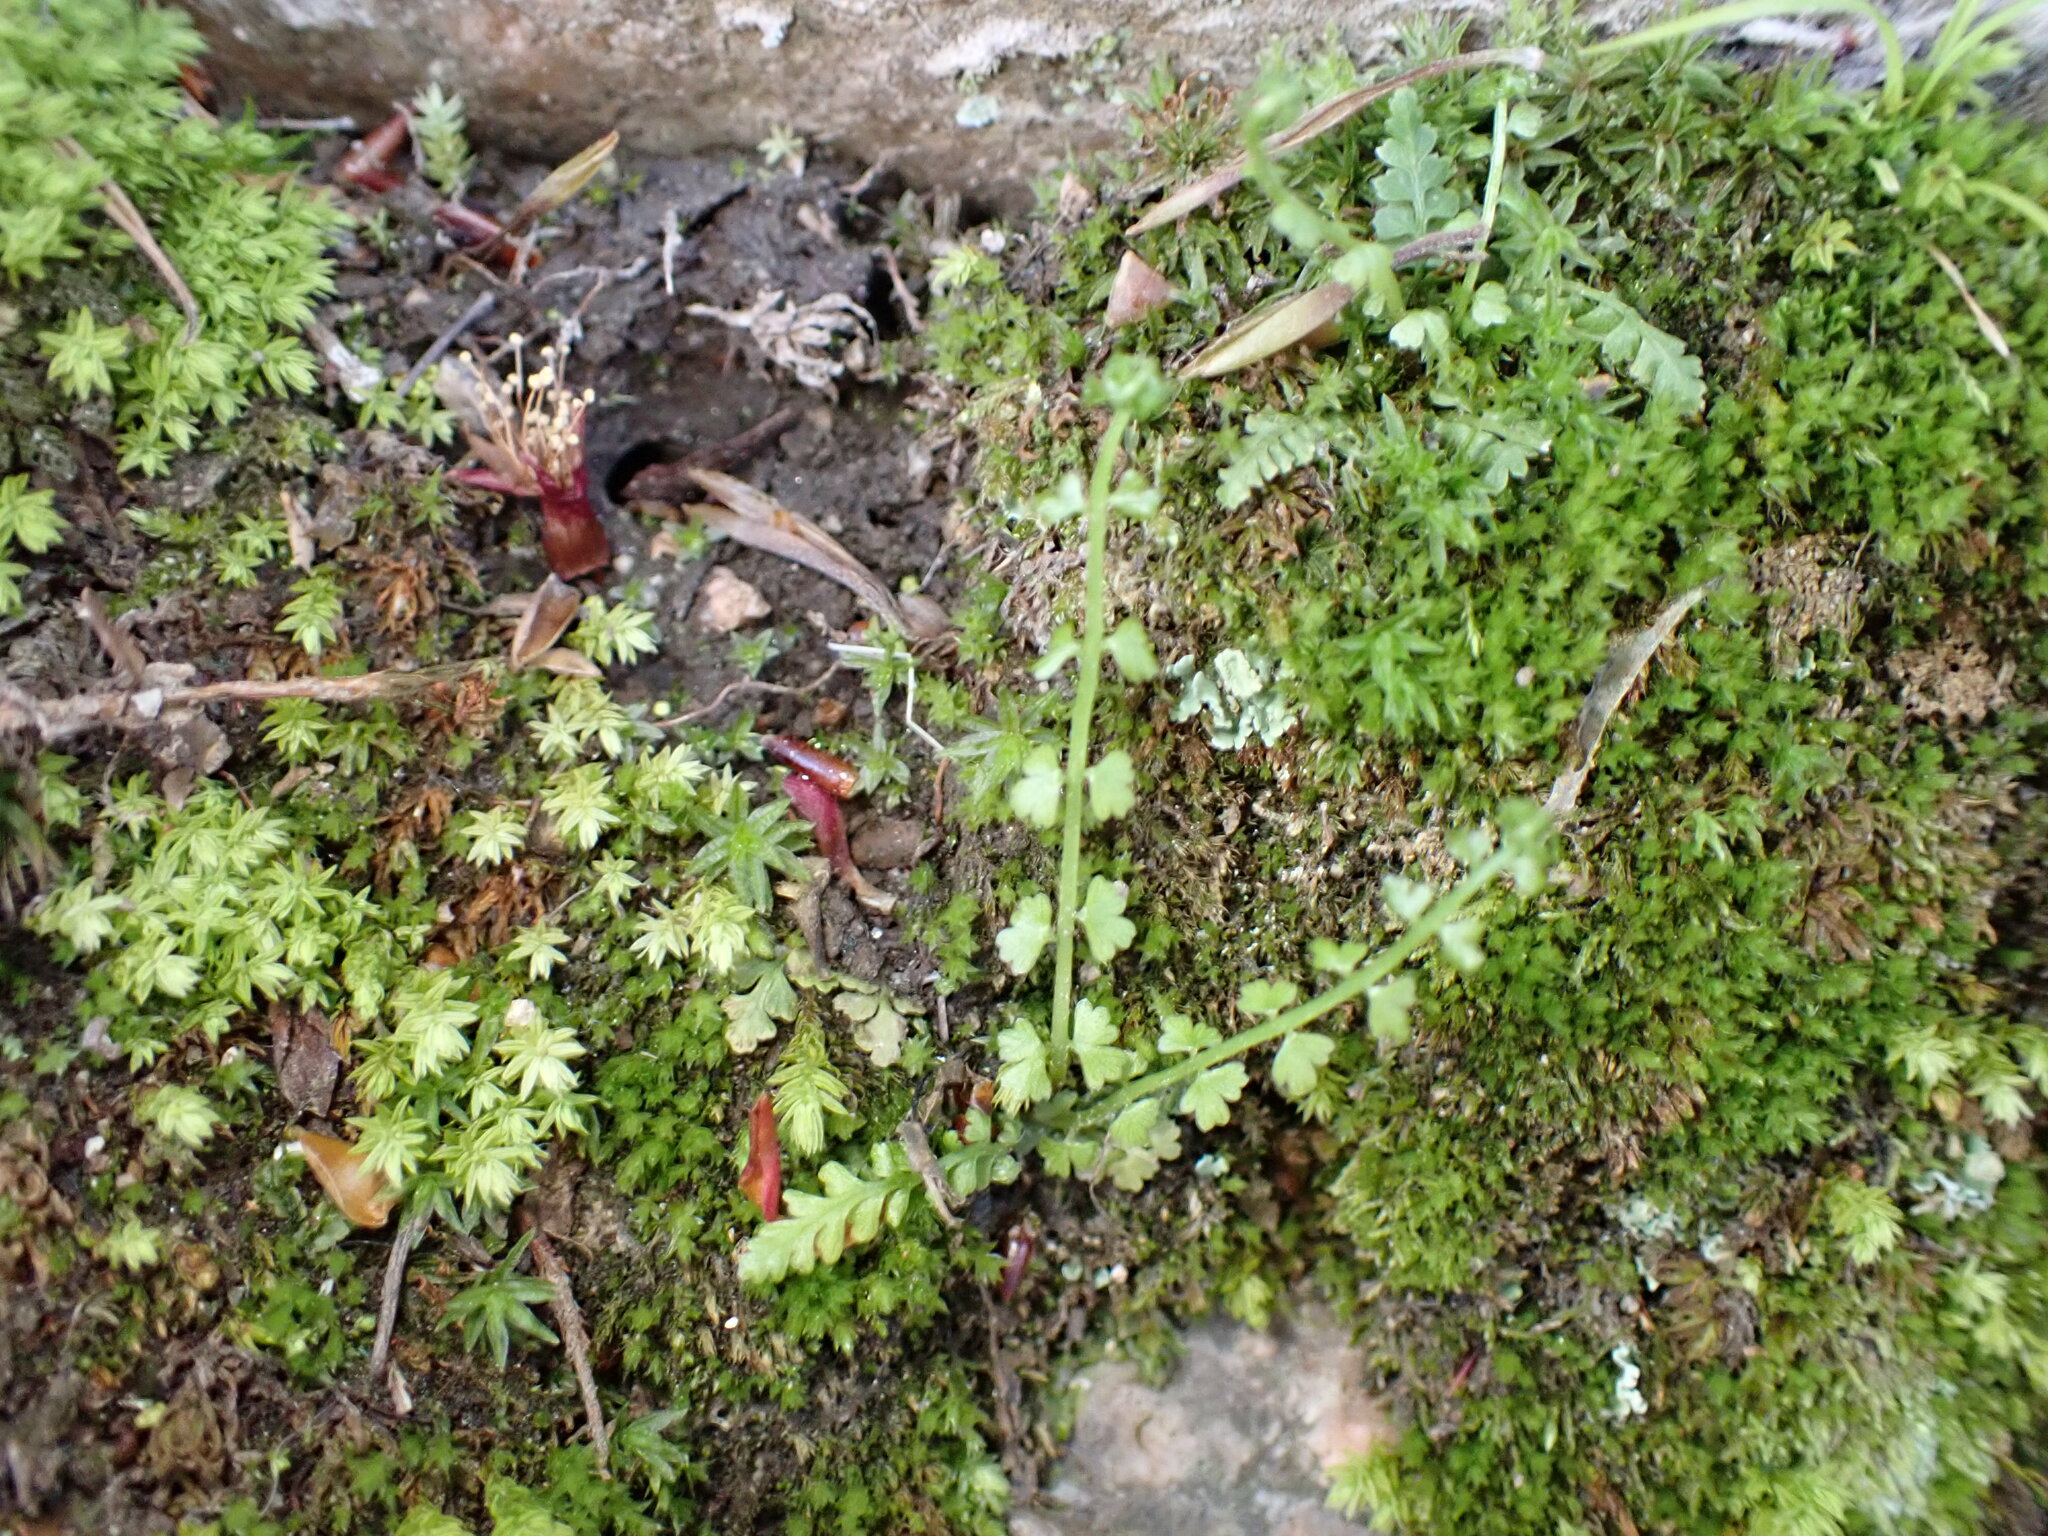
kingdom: Plantae
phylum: Tracheophyta
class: Polypodiopsida
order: Polypodiales
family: Aspleniaceae
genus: Asplenium
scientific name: Asplenium incisum
